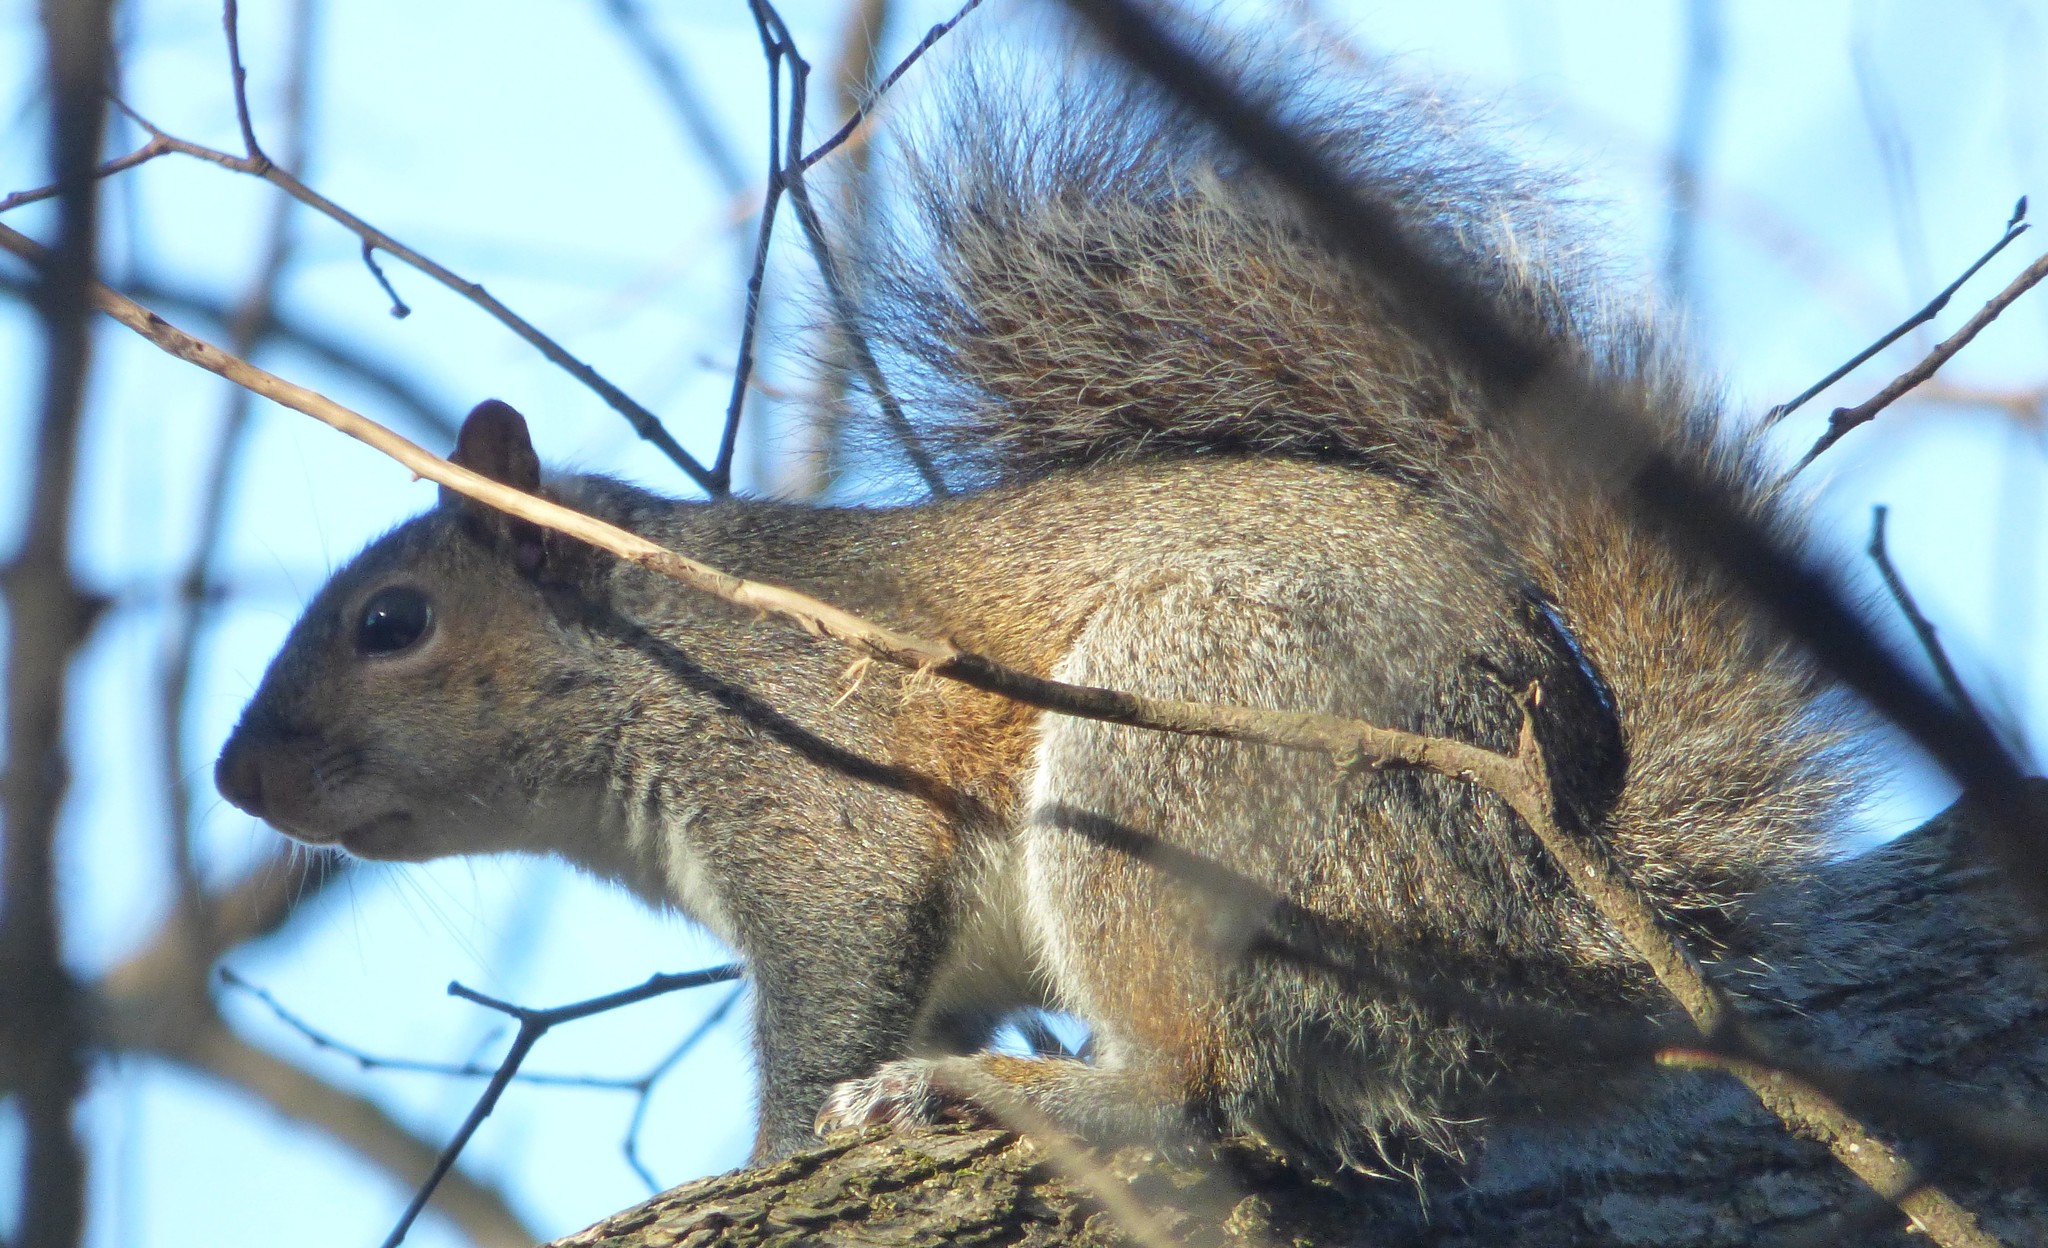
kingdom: Animalia
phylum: Chordata
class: Mammalia
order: Rodentia
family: Sciuridae
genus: Sciurus
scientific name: Sciurus carolinensis
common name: Eastern gray squirrel
